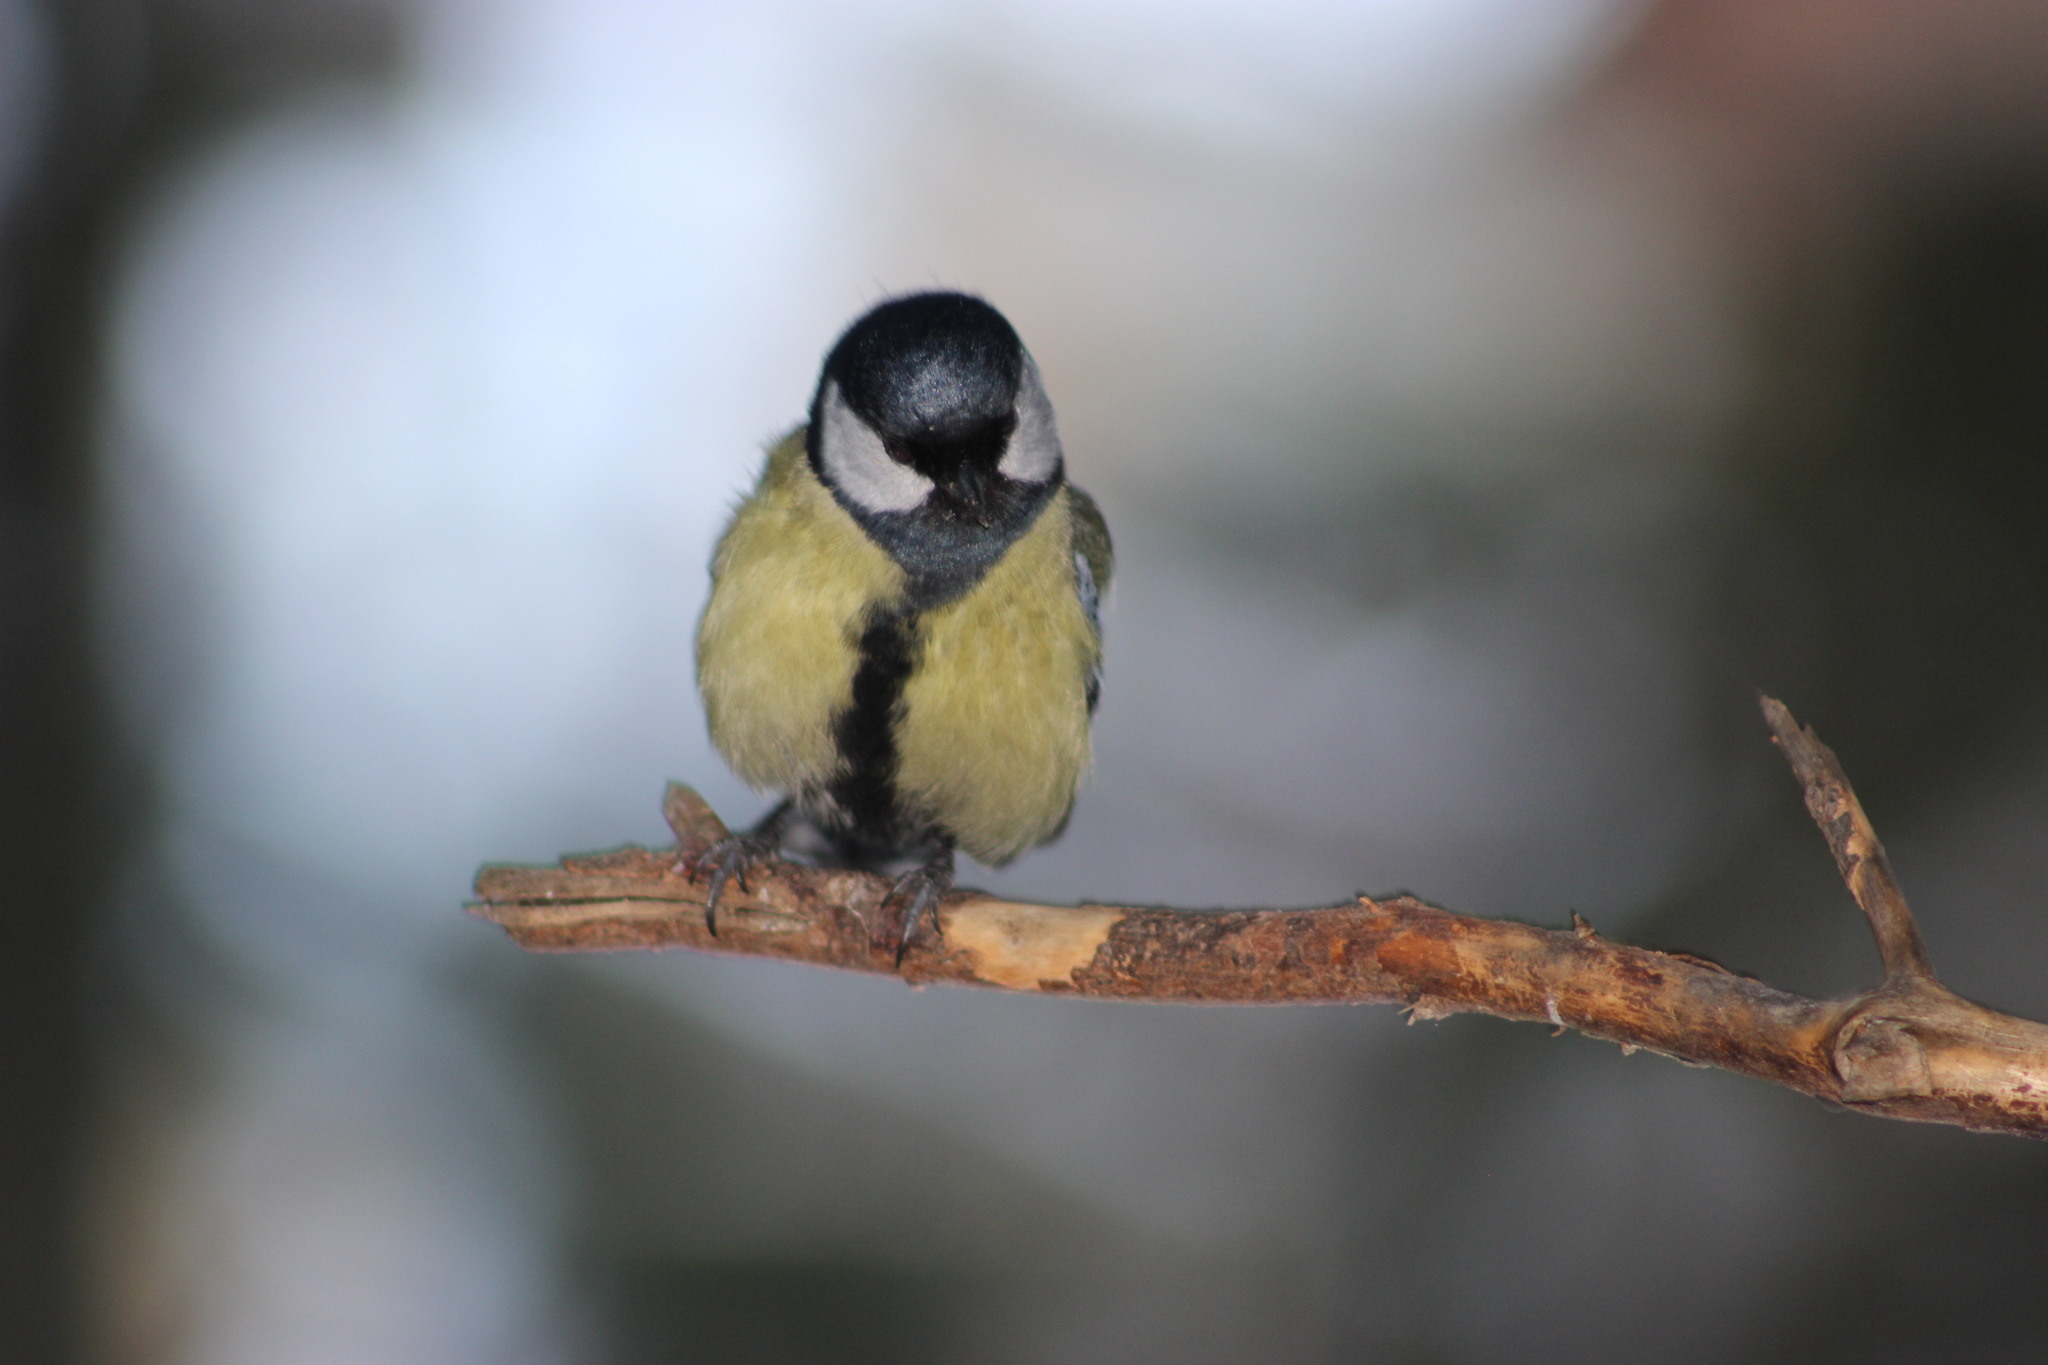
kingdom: Animalia
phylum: Chordata
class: Aves
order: Passeriformes
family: Paridae
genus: Parus
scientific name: Parus major
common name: Great tit
